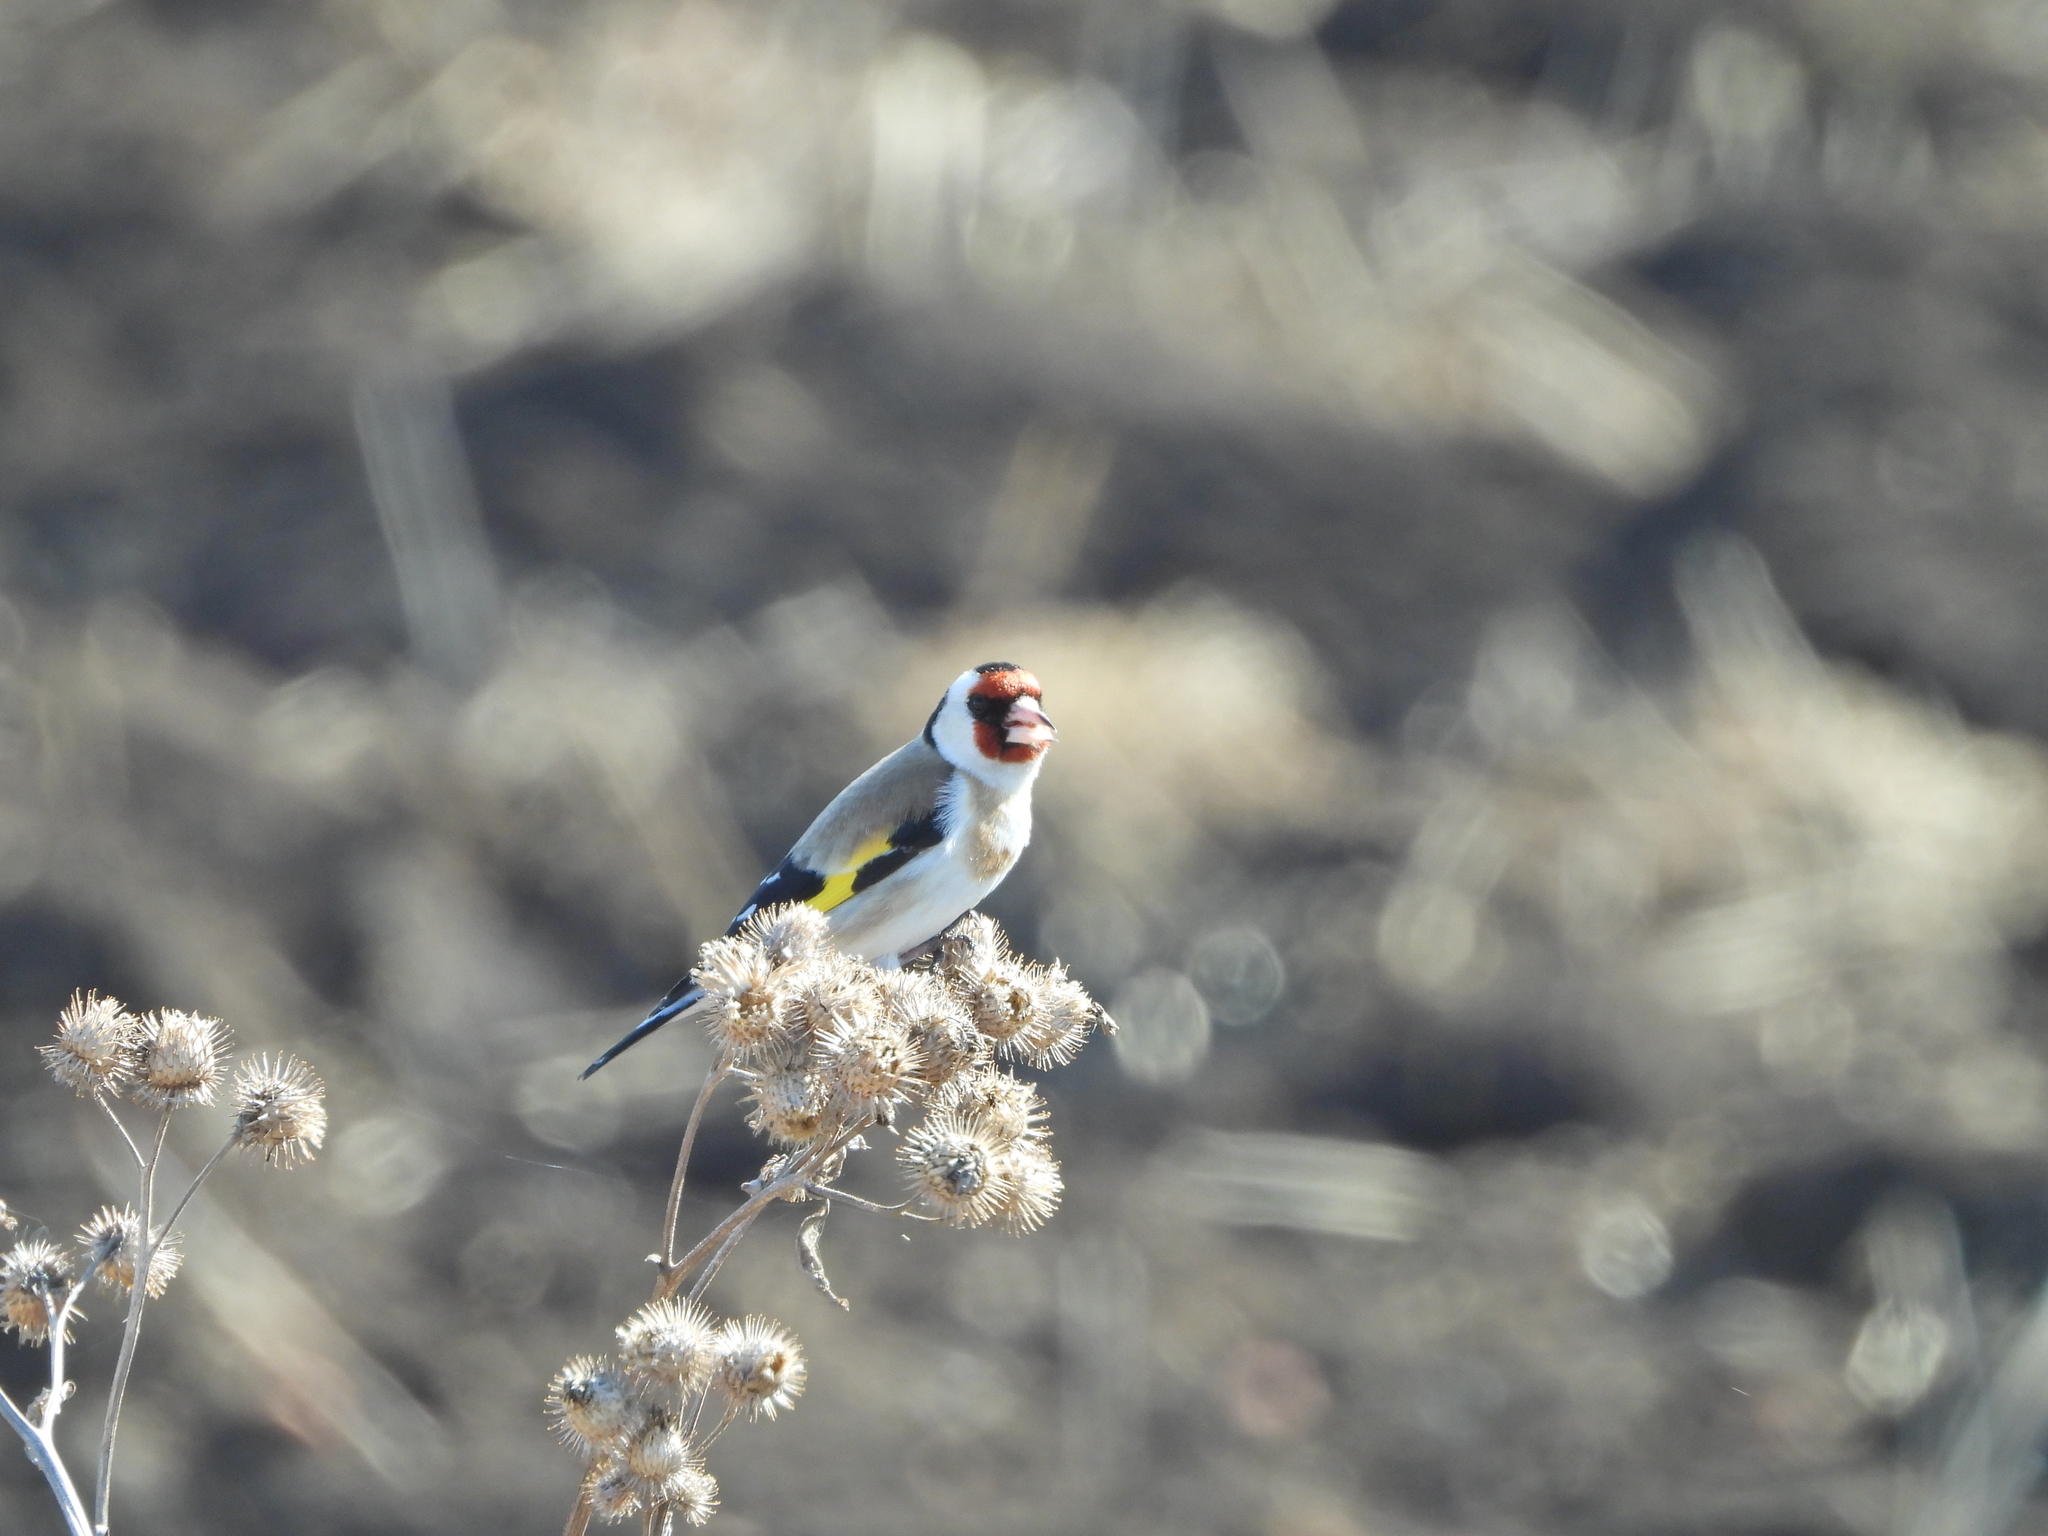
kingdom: Animalia
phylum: Chordata
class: Aves
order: Passeriformes
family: Fringillidae
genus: Carduelis
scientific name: Carduelis carduelis
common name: European goldfinch
